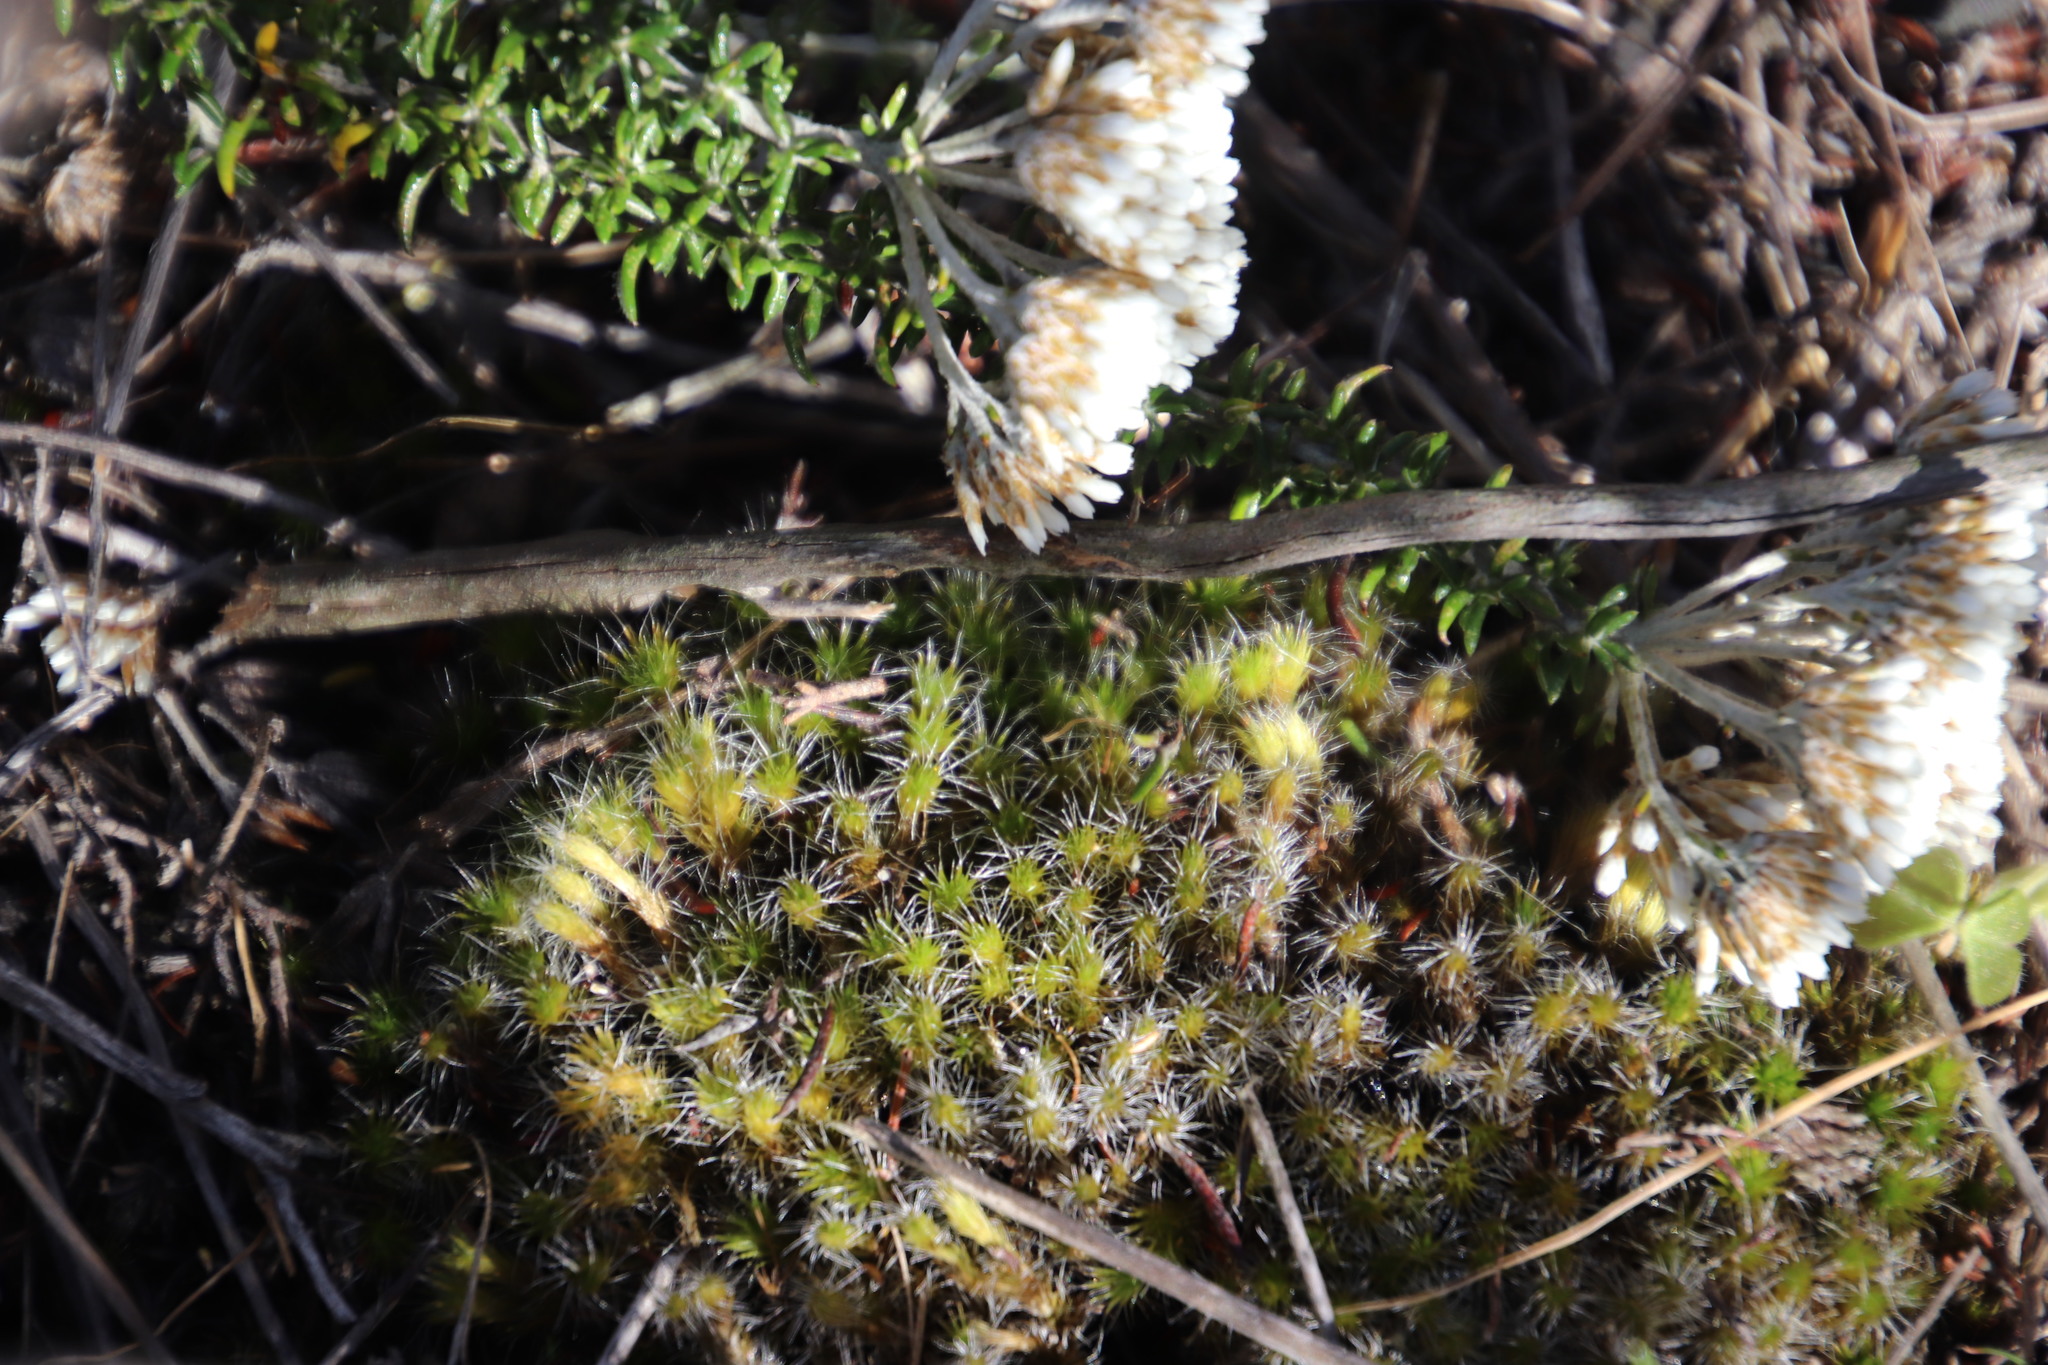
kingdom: Plantae
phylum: Bryophyta
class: Bryopsida
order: Dicranales
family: Leucobryaceae
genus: Campylopus
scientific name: Campylopus introflexus
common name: Heath star moss
